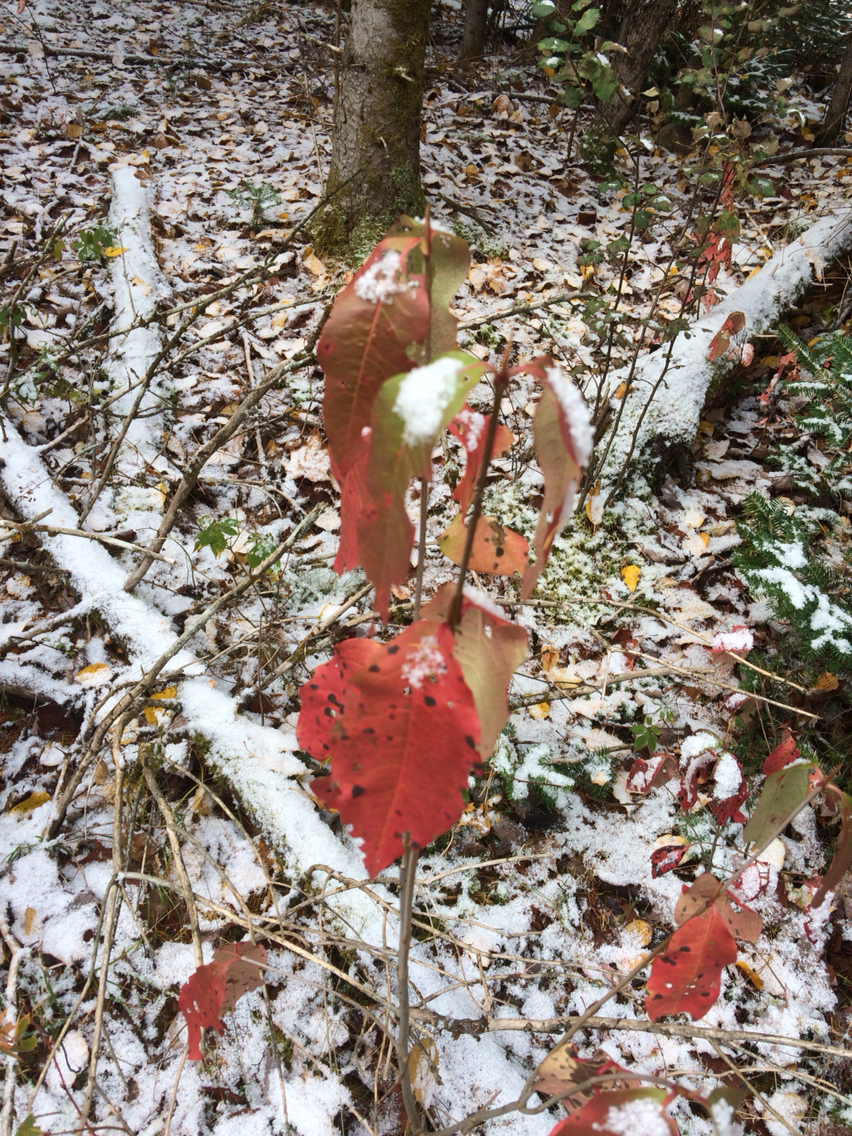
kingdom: Plantae
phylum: Tracheophyta
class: Magnoliopsida
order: Dipsacales
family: Viburnaceae
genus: Viburnum
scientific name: Viburnum cassinoides
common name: Swamp haw
